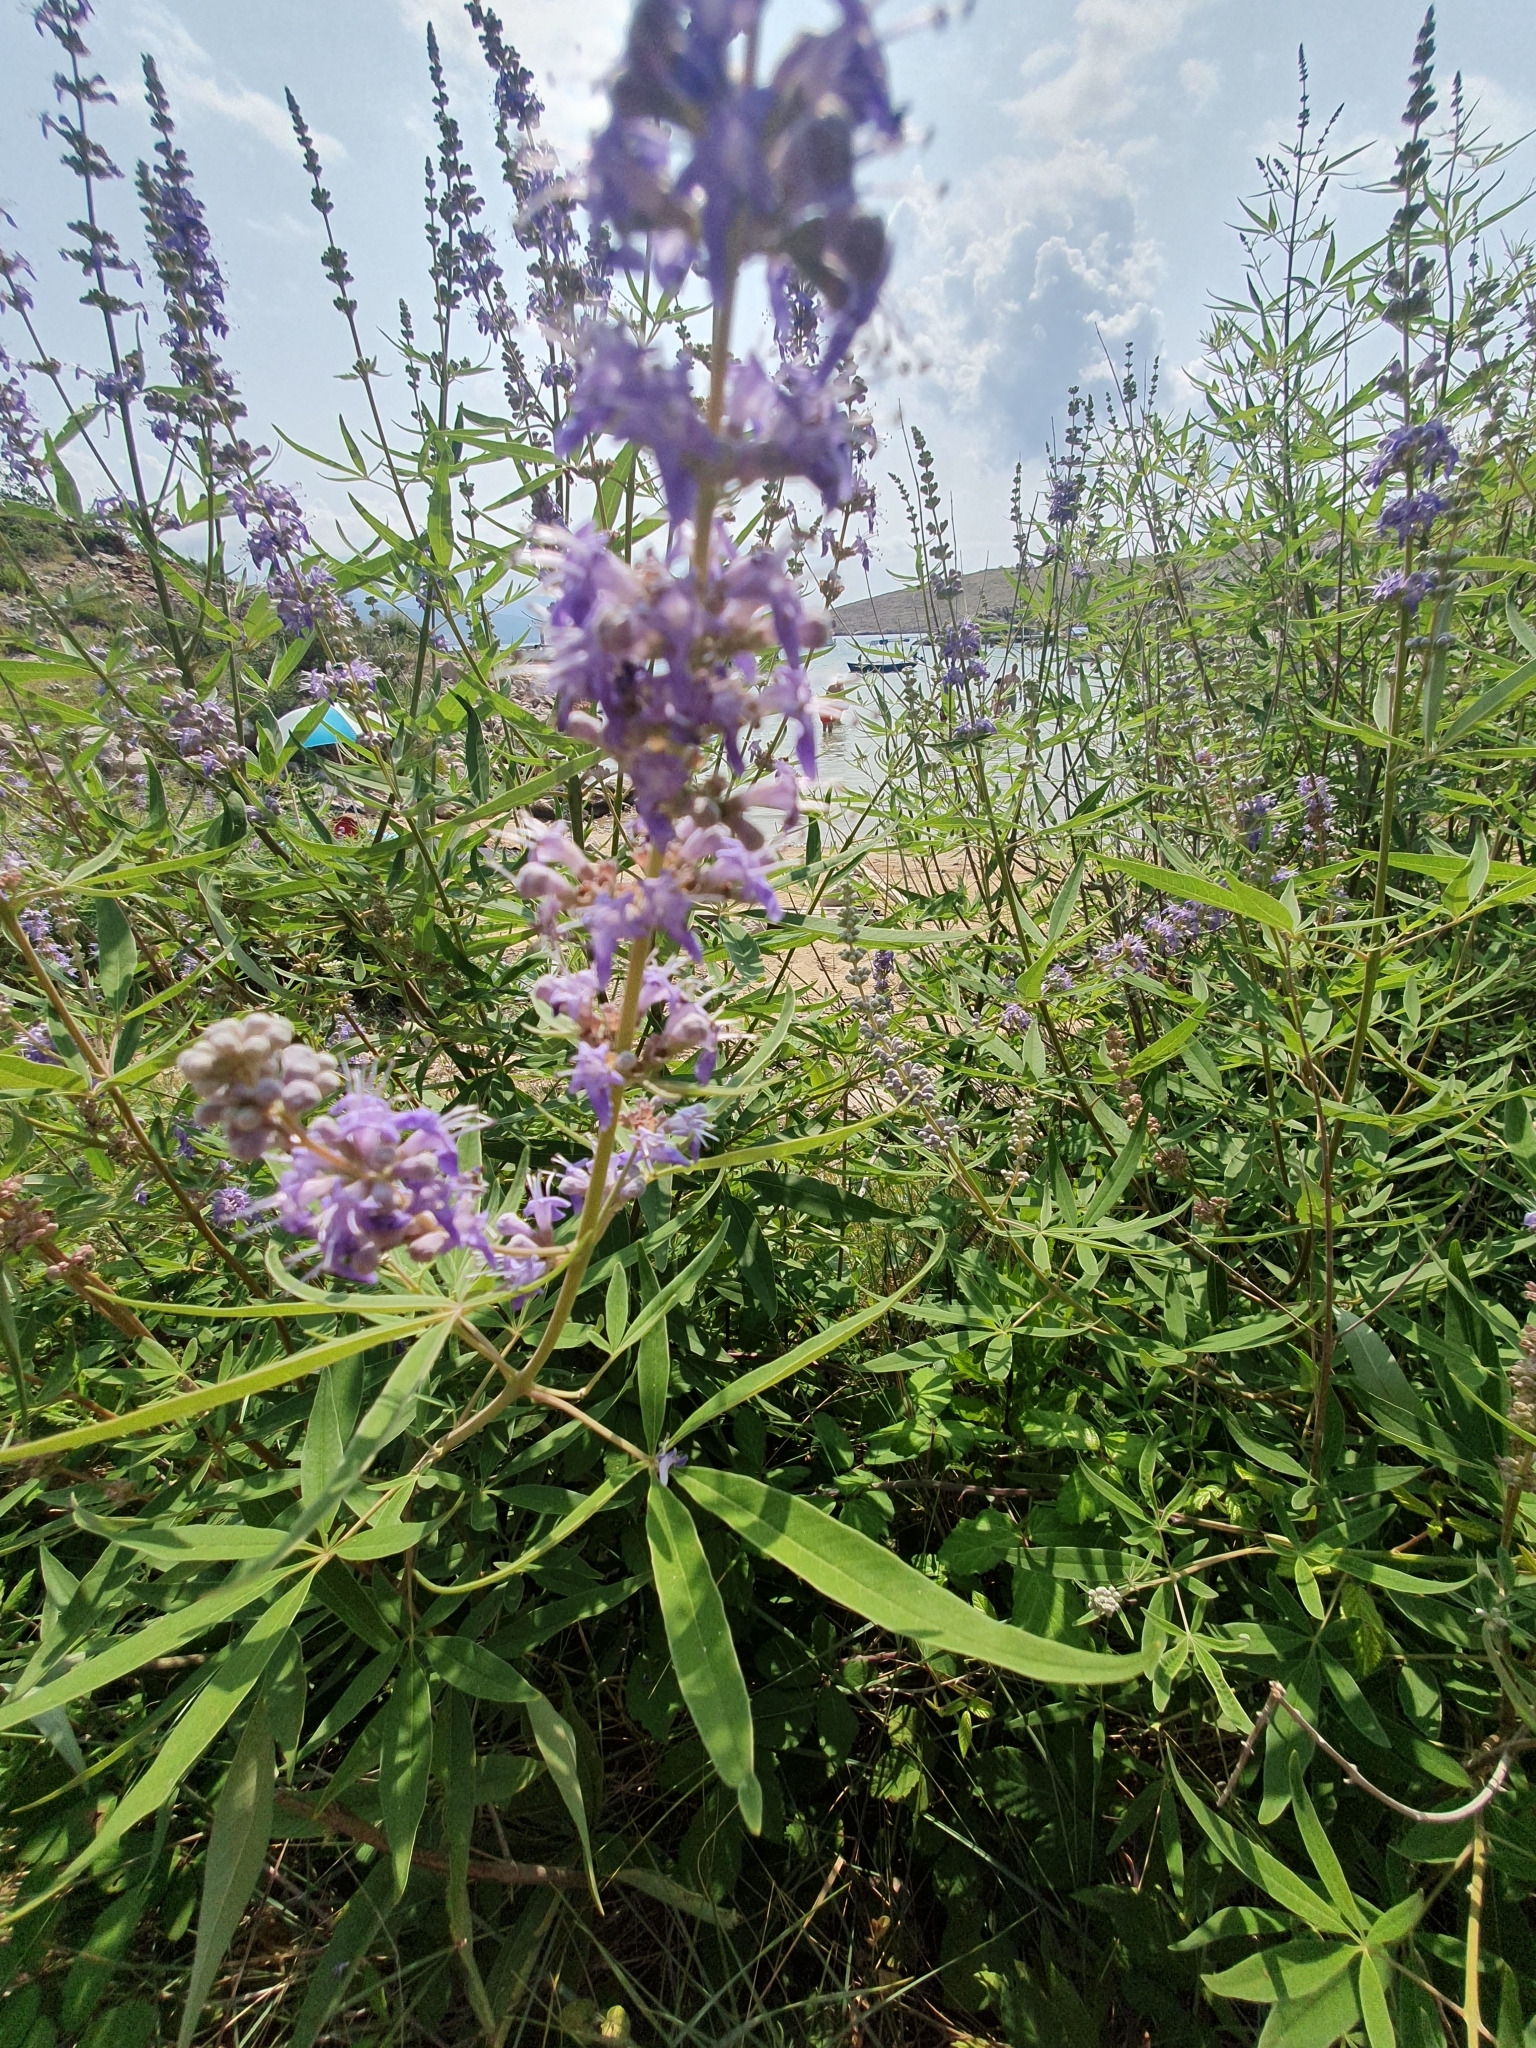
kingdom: Plantae
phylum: Tracheophyta
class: Magnoliopsida
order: Lamiales
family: Lamiaceae
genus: Vitex
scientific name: Vitex agnus-castus
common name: Chasteberry
